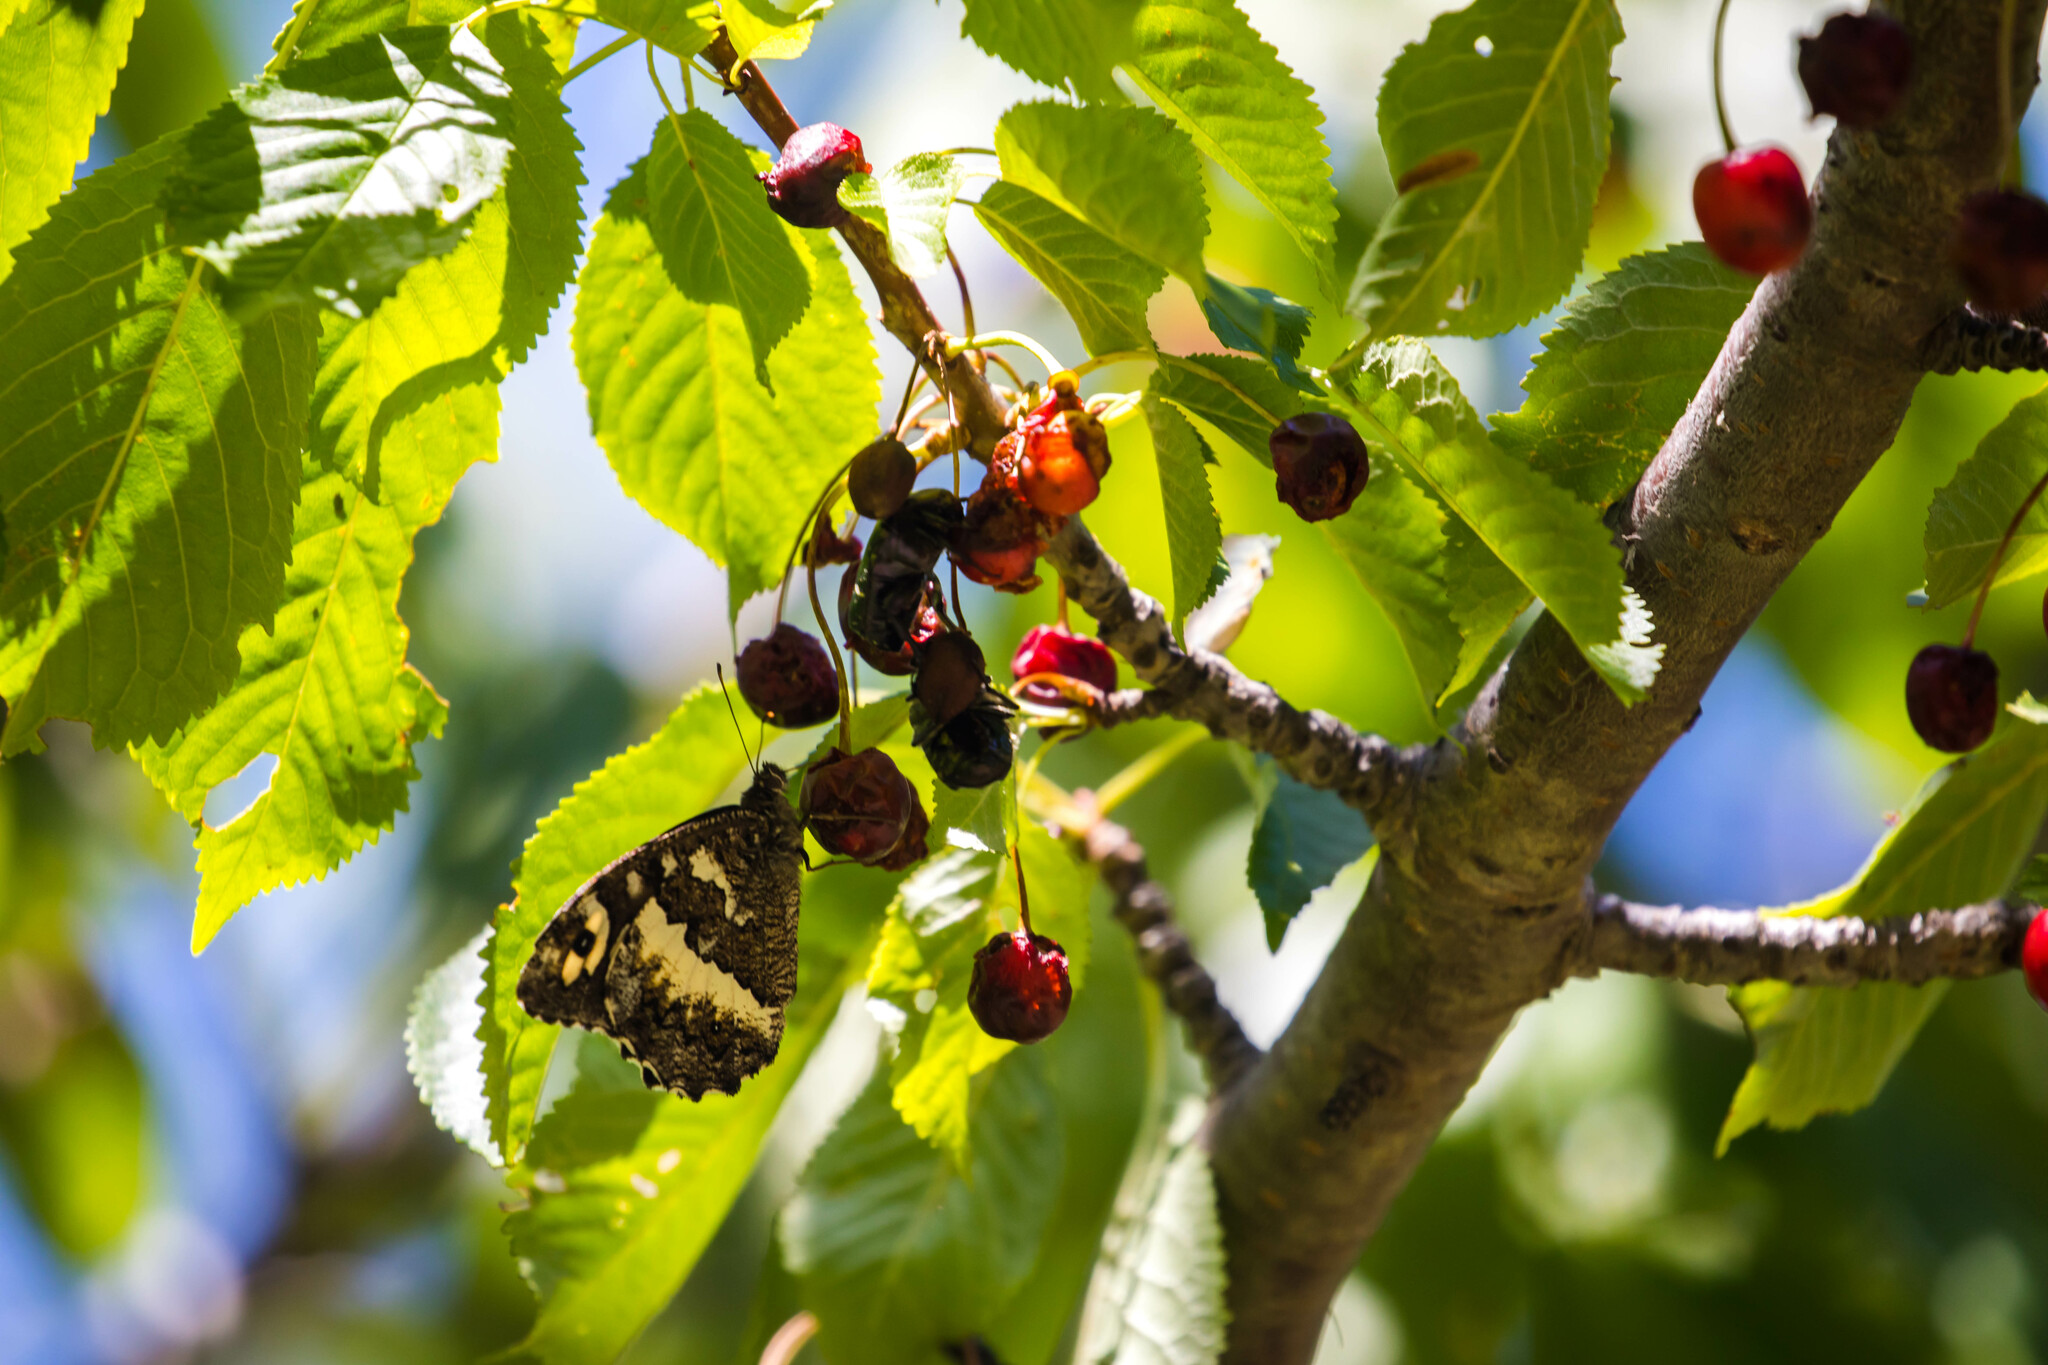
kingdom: Animalia
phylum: Arthropoda
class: Insecta
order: Lepidoptera
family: Lycaenidae
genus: Loweia
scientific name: Loweia tityrus
